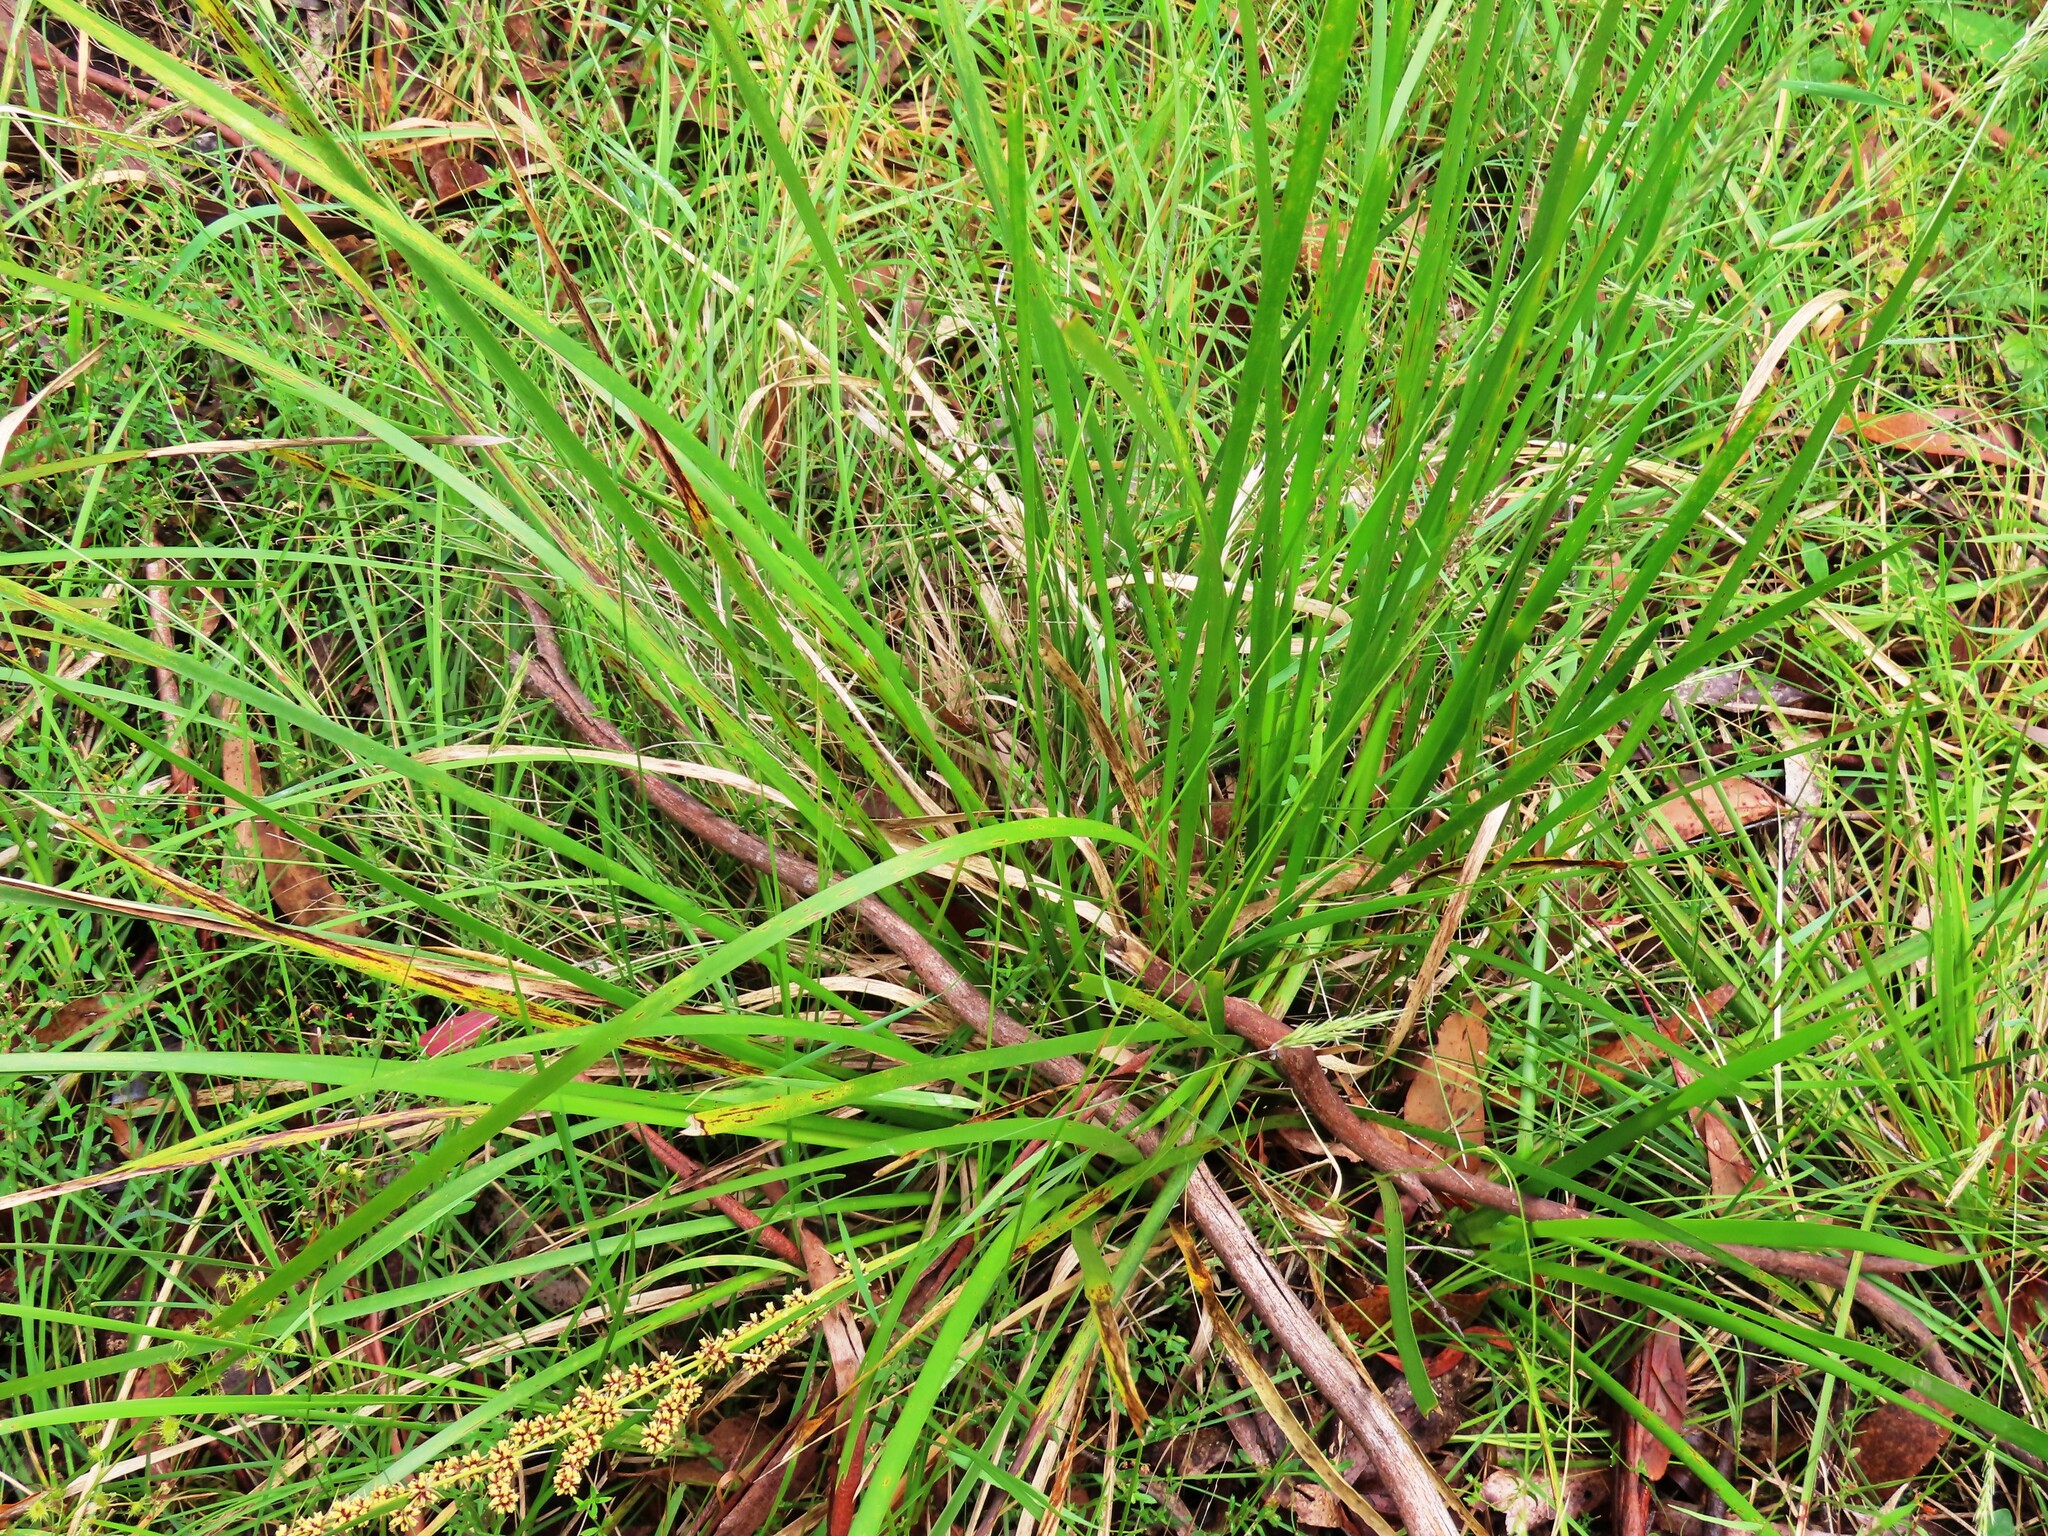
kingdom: Plantae
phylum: Tracheophyta
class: Liliopsida
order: Asparagales
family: Asparagaceae
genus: Lomandra
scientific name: Lomandra longifolia
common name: Longleaf mat-rush
